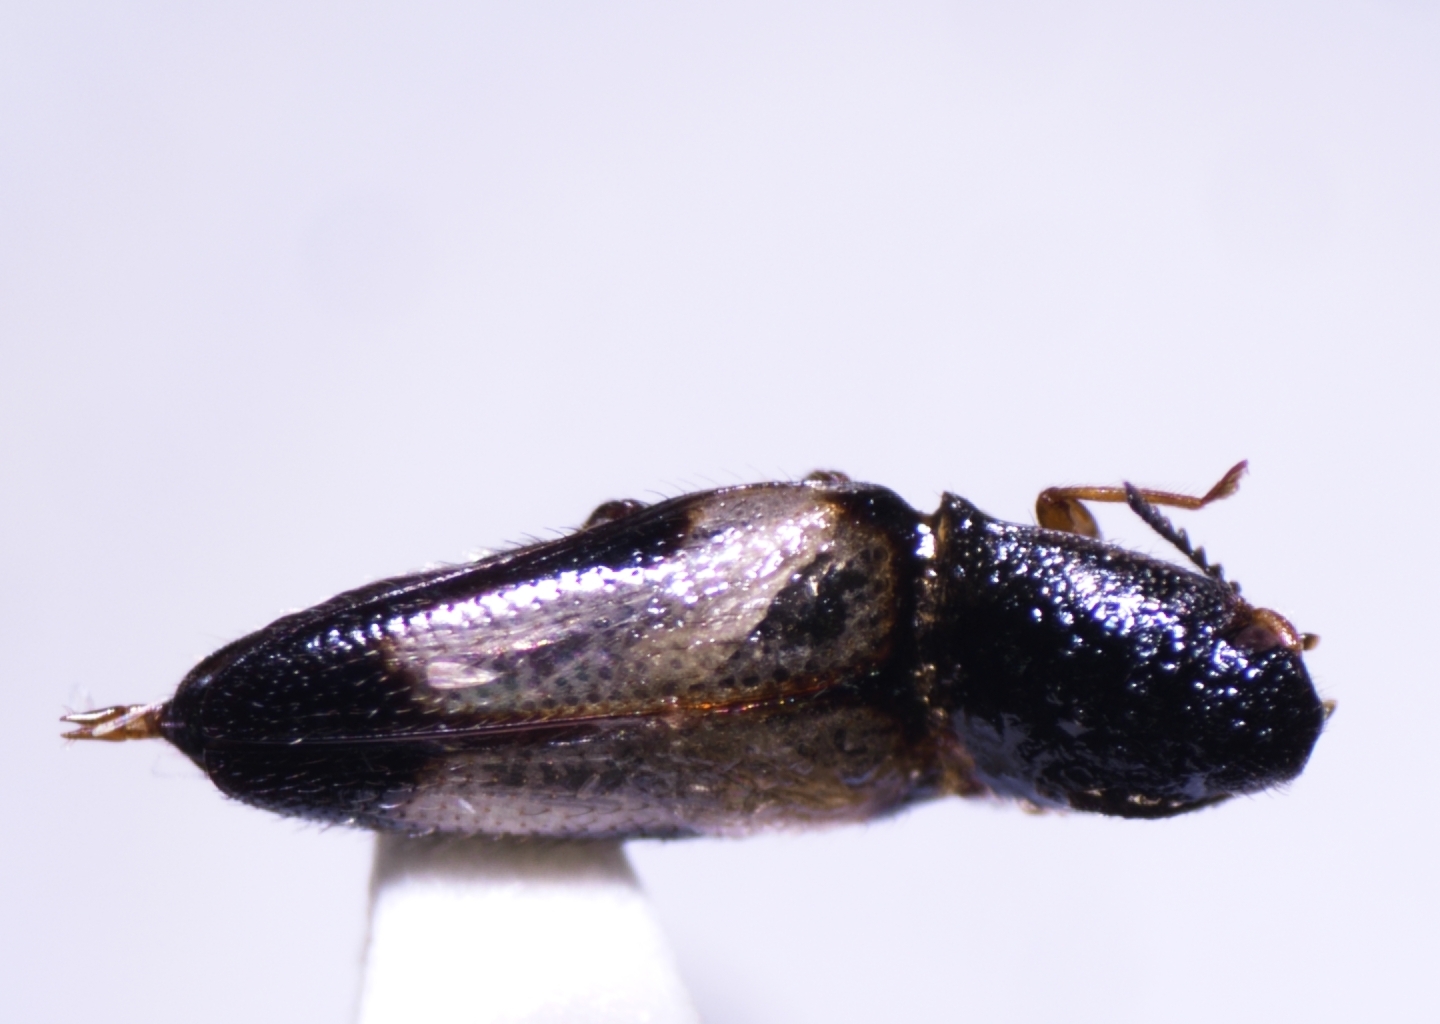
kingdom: Animalia
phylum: Arthropoda
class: Insecta
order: Coleoptera
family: Elateridae
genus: Drapetes
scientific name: Drapetes plagiatus
